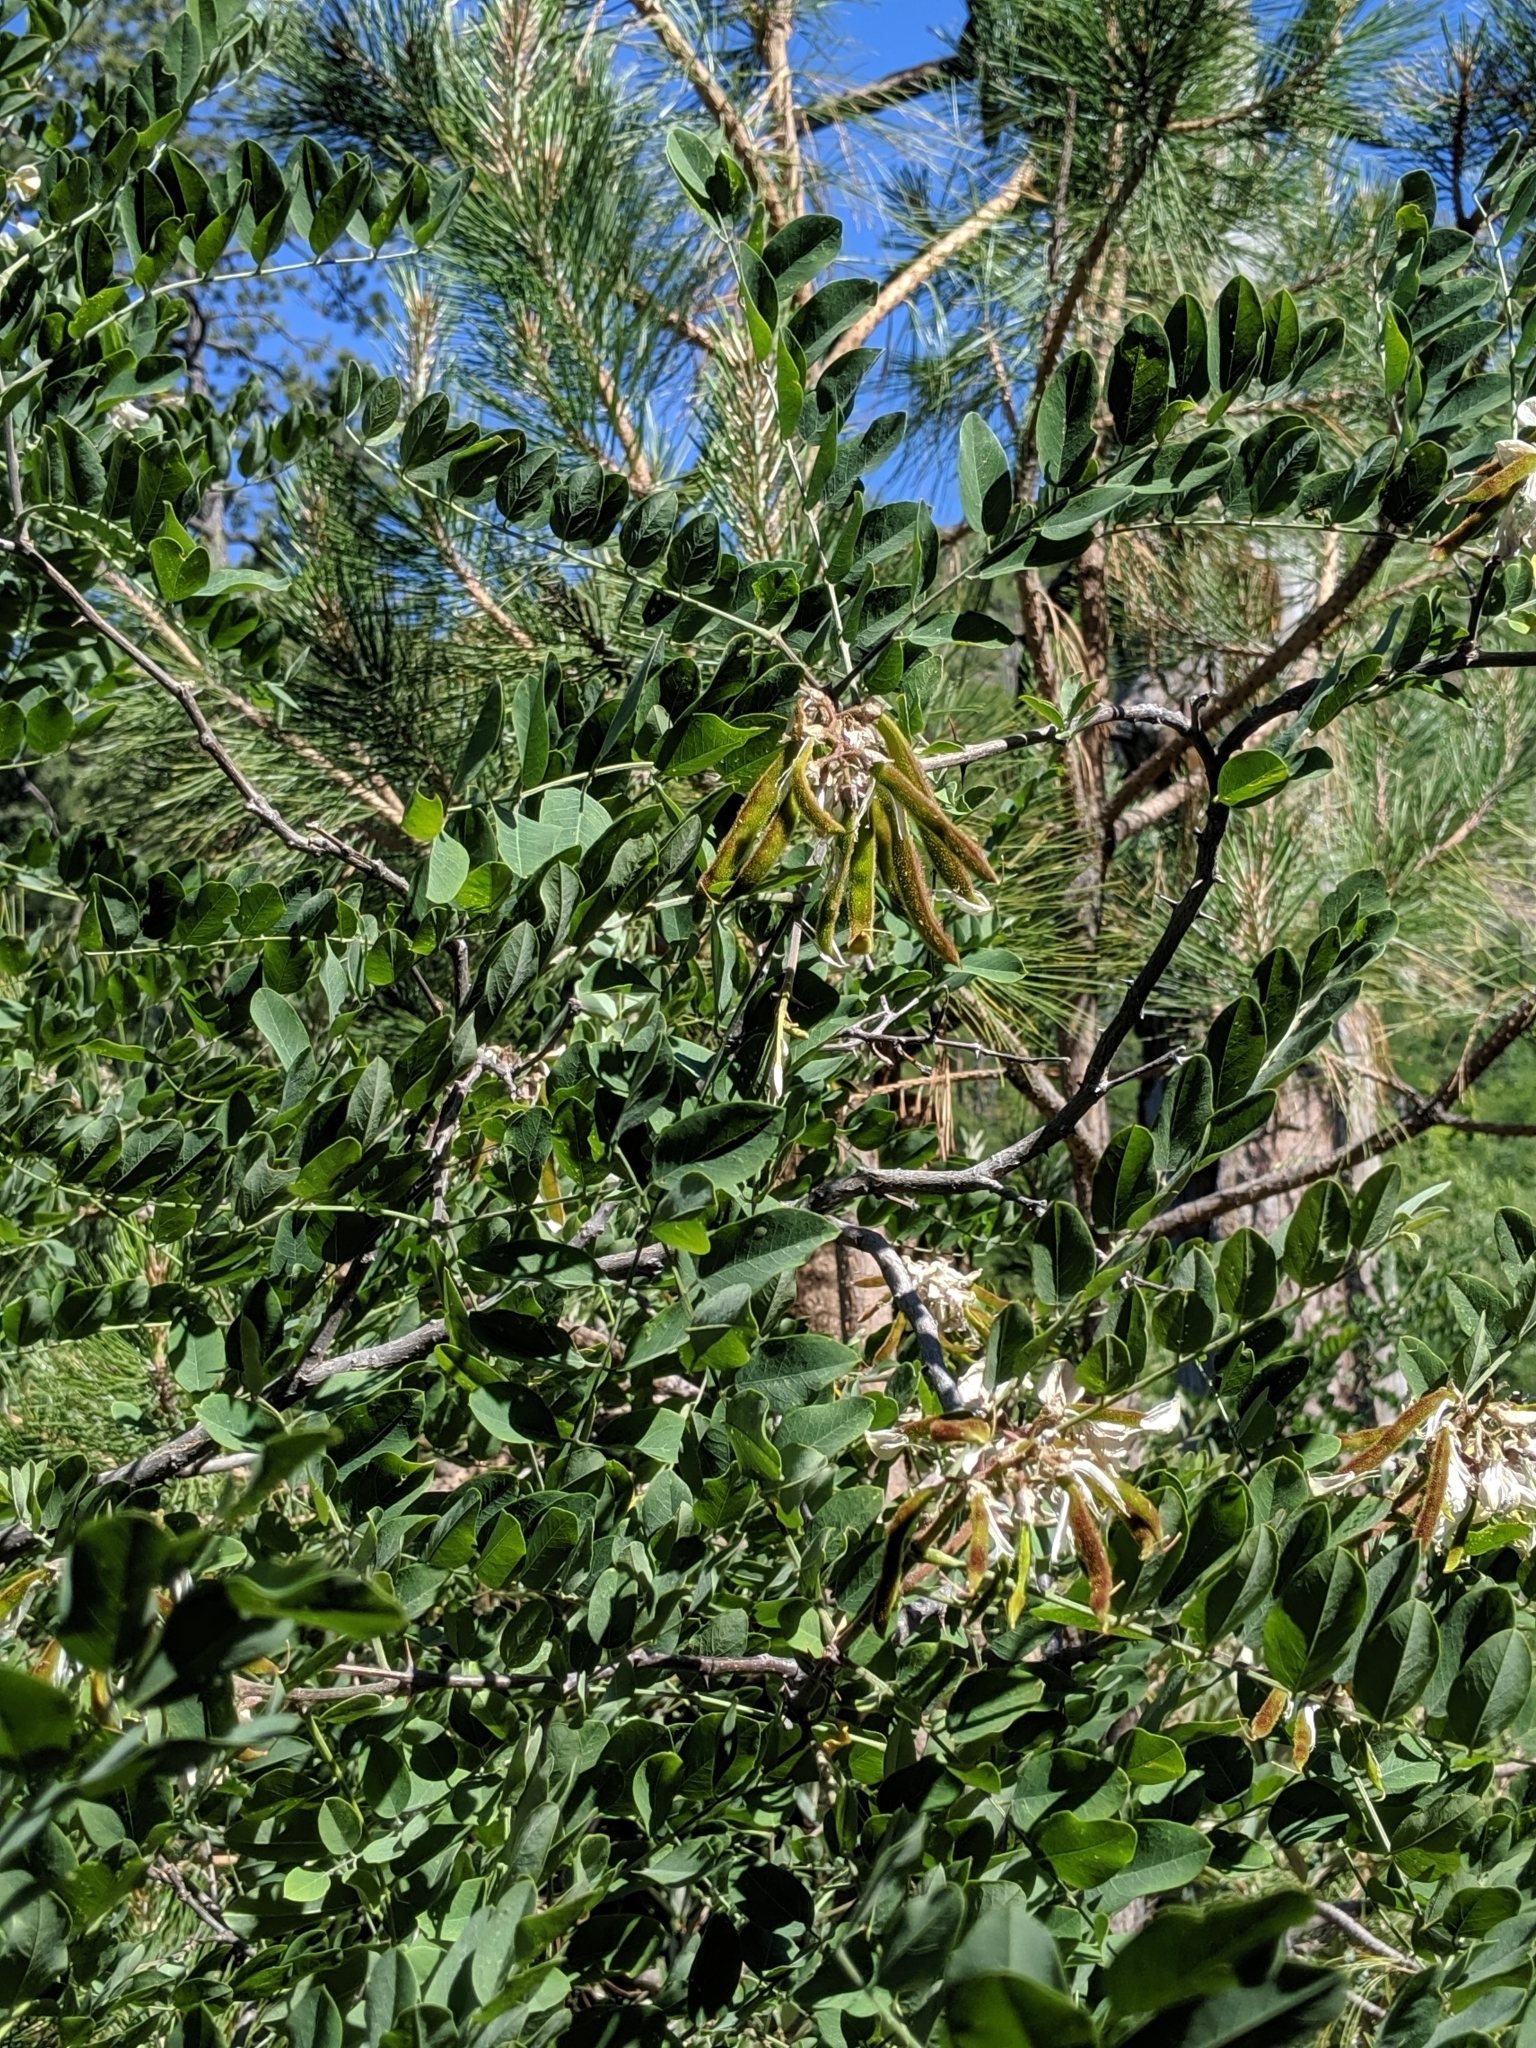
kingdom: Plantae
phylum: Tracheophyta
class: Magnoliopsida
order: Fabales
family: Fabaceae
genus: Robinia
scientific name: Robinia neomexicana
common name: New mexico locust
